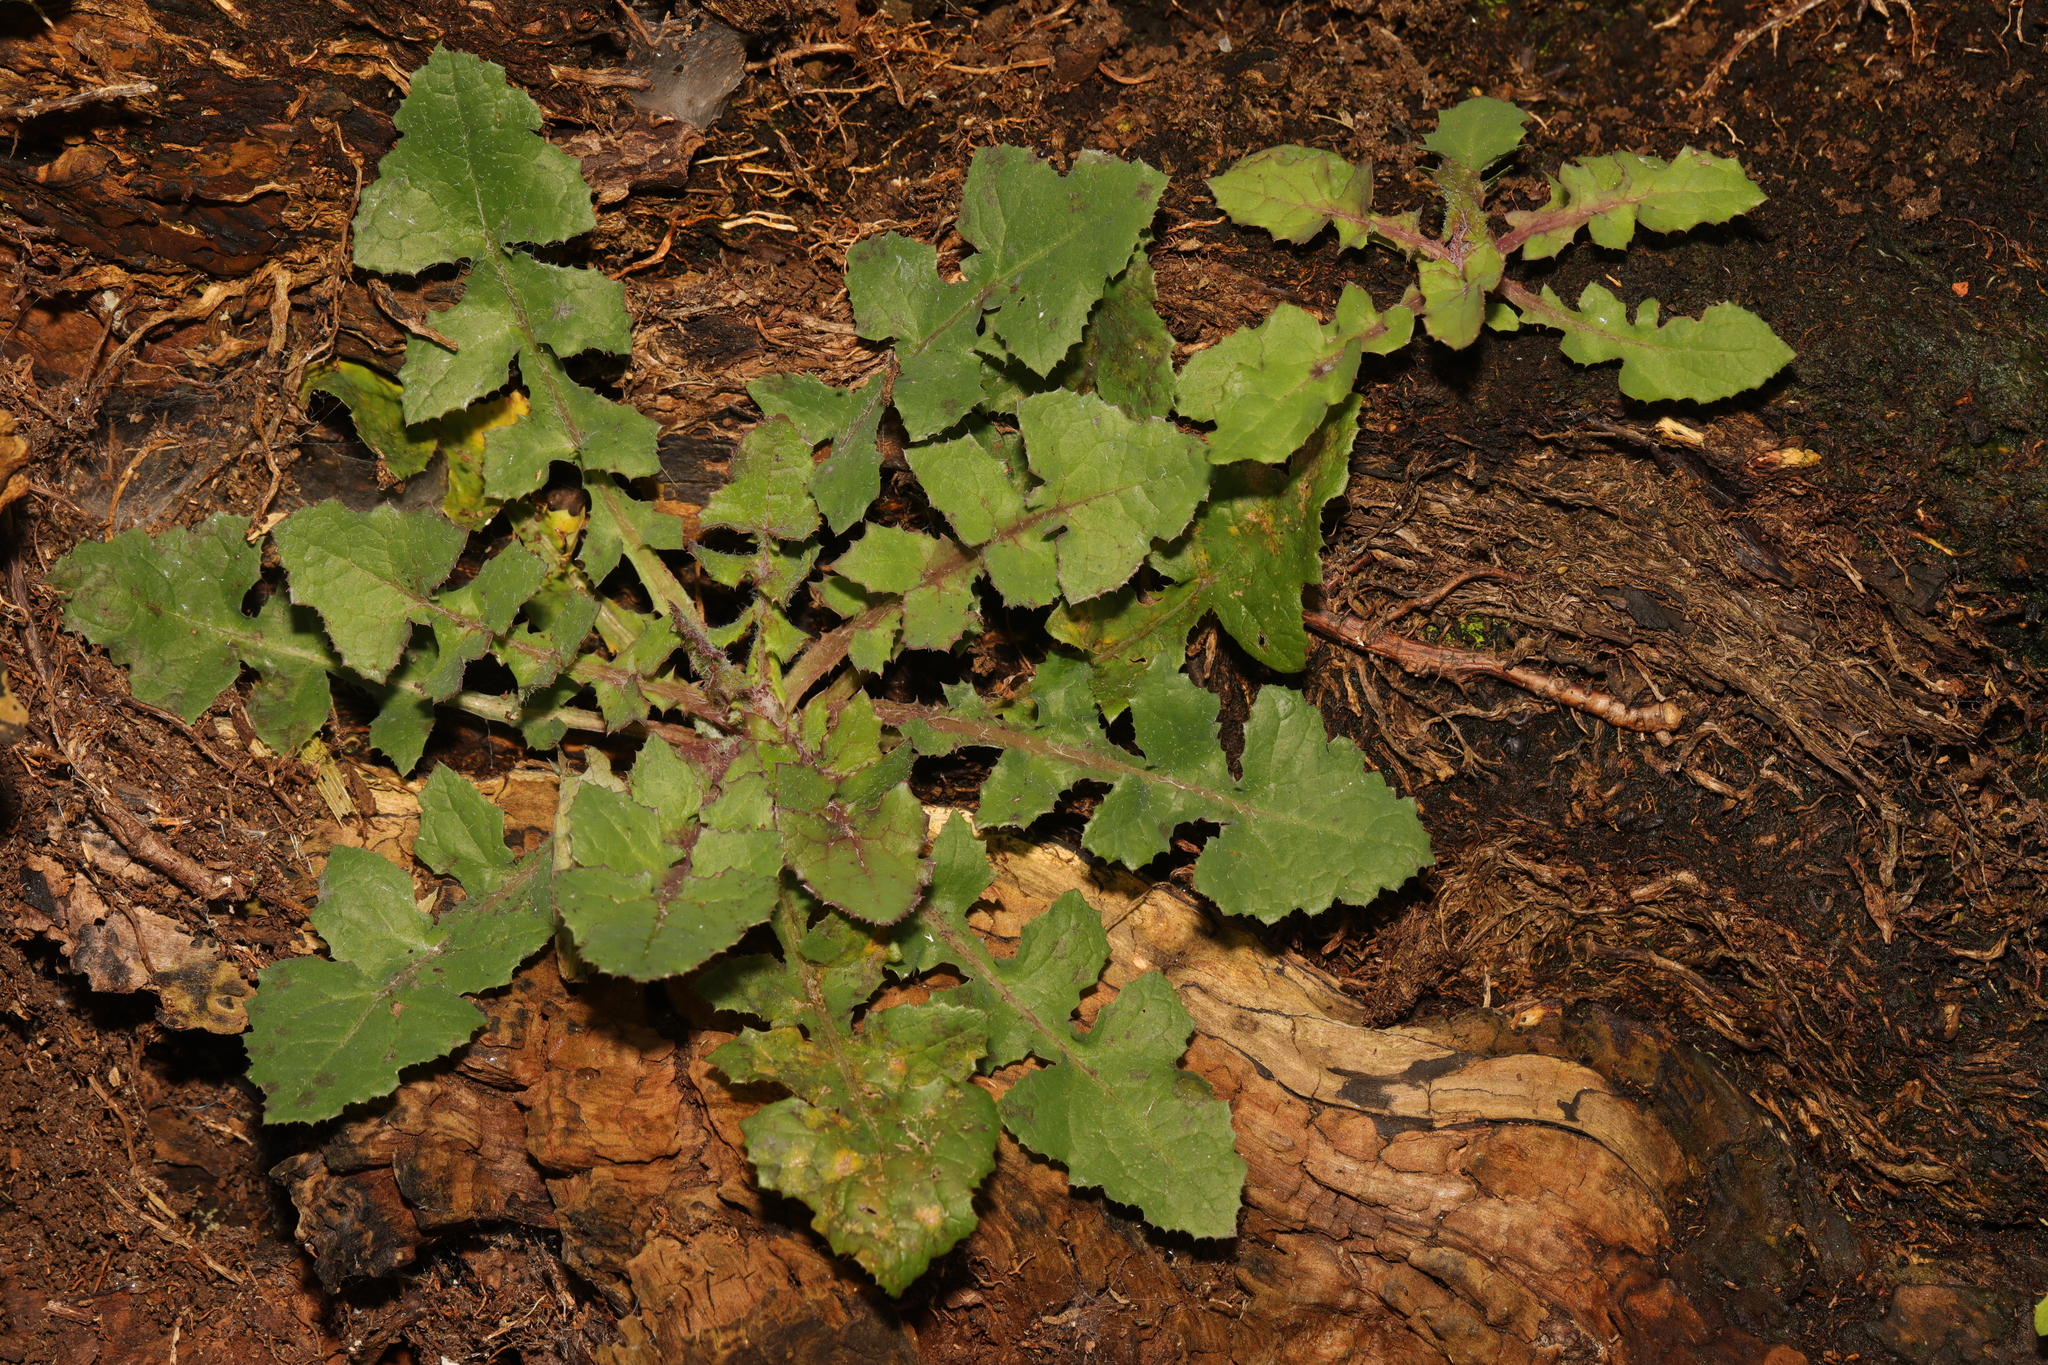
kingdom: Plantae
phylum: Tracheophyta
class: Magnoliopsida
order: Asterales
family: Asteraceae
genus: Sonchus
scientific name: Sonchus oleraceus
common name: Common sowthistle
